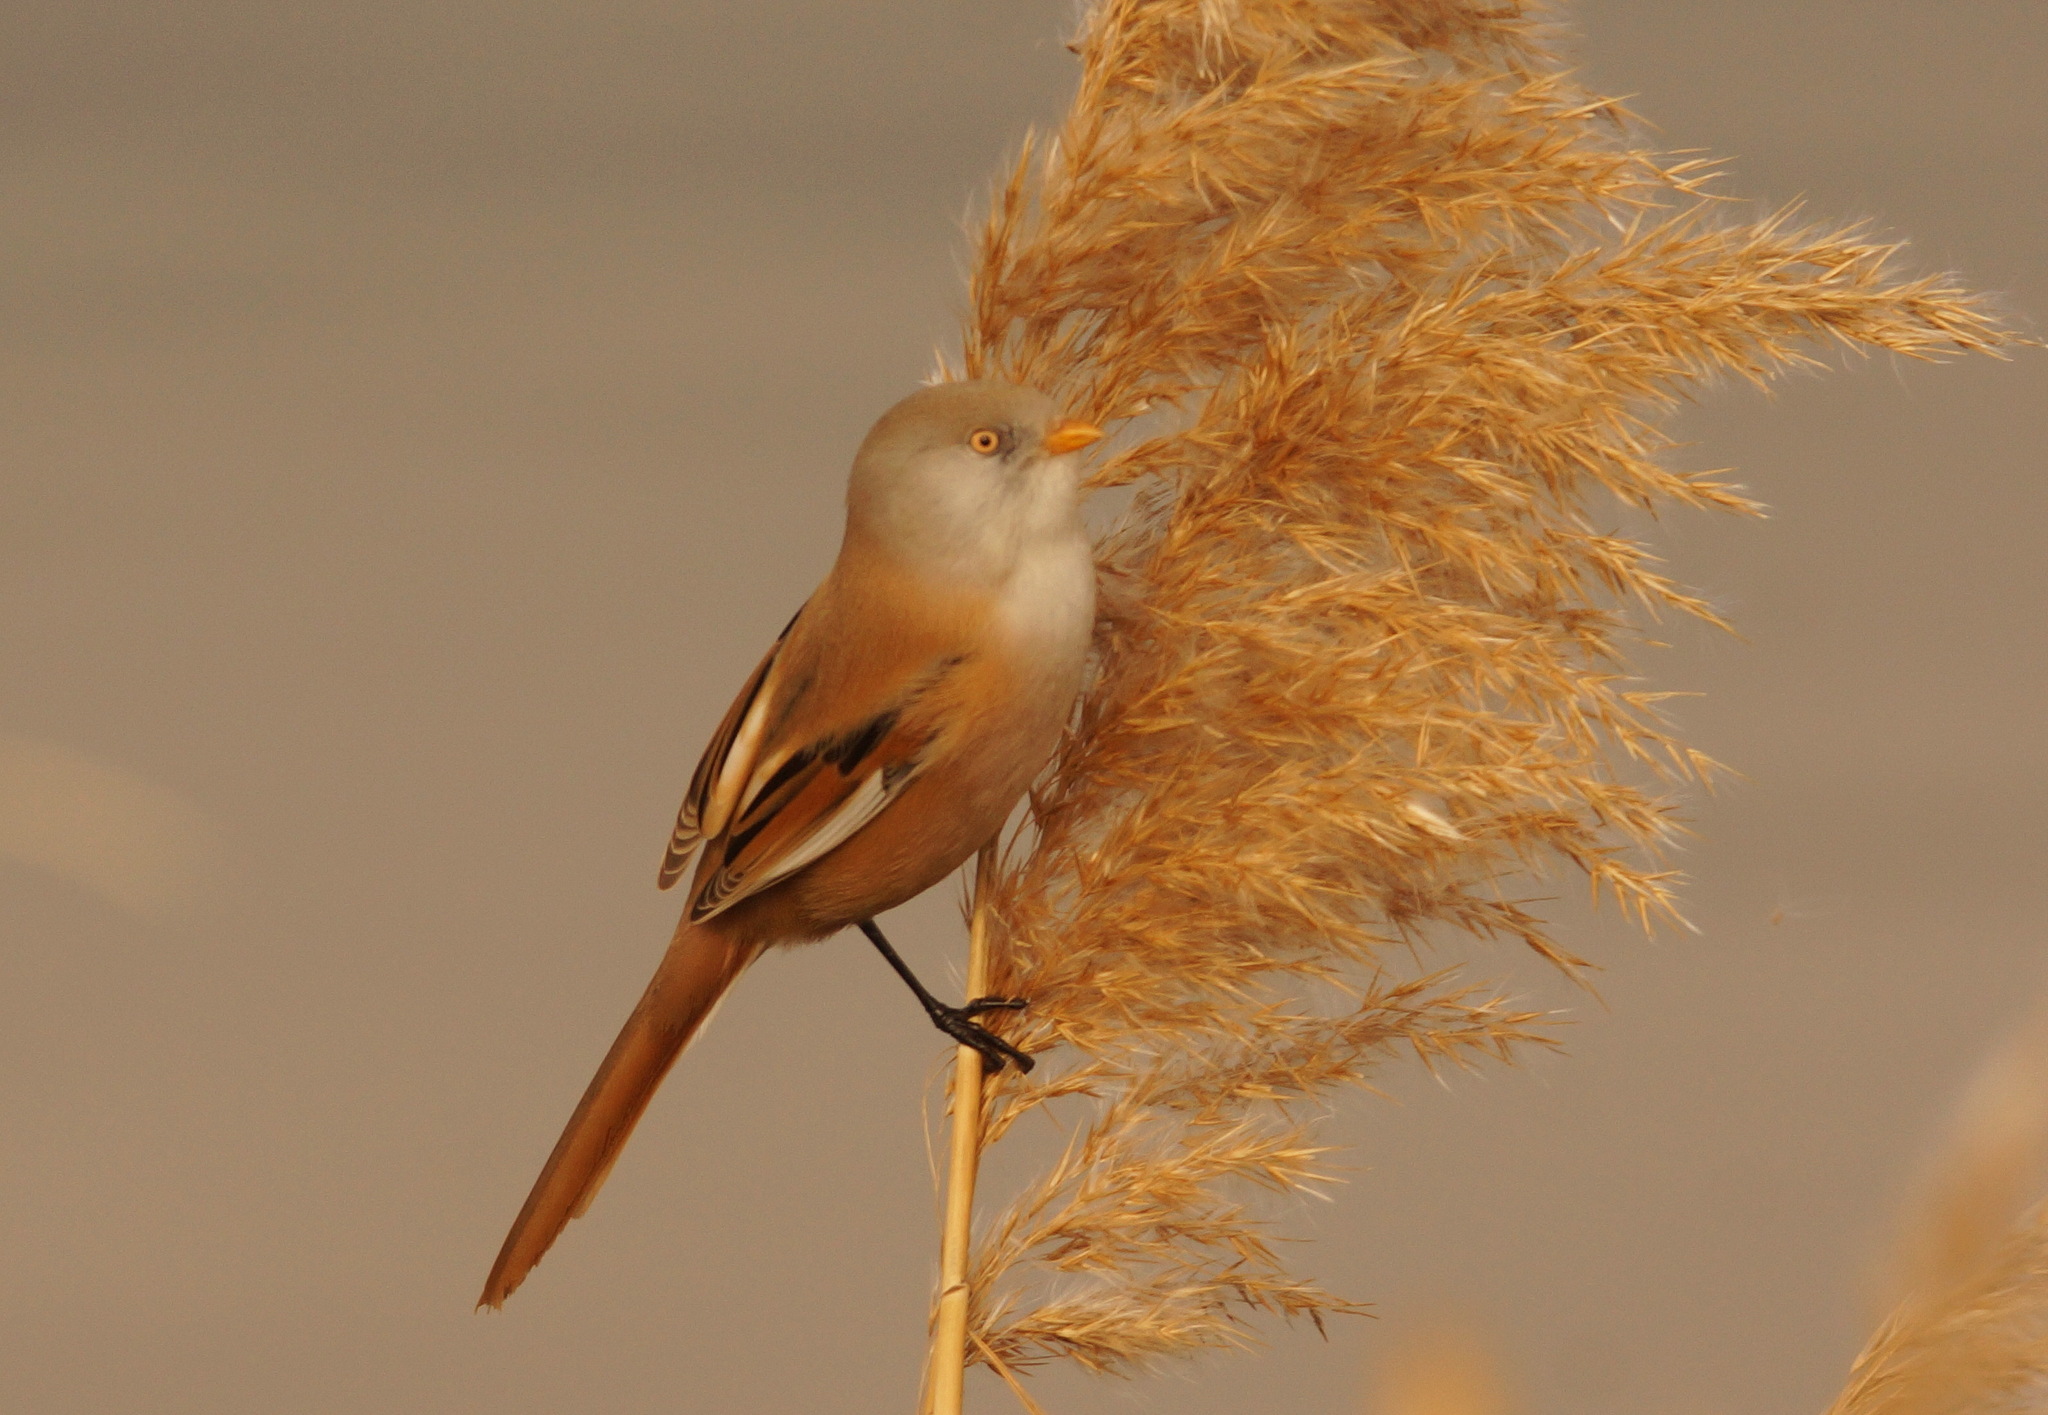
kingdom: Animalia
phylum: Chordata
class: Aves
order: Passeriformes
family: Panuridae
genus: Panurus
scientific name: Panurus biarmicus
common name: Bearded reedling
